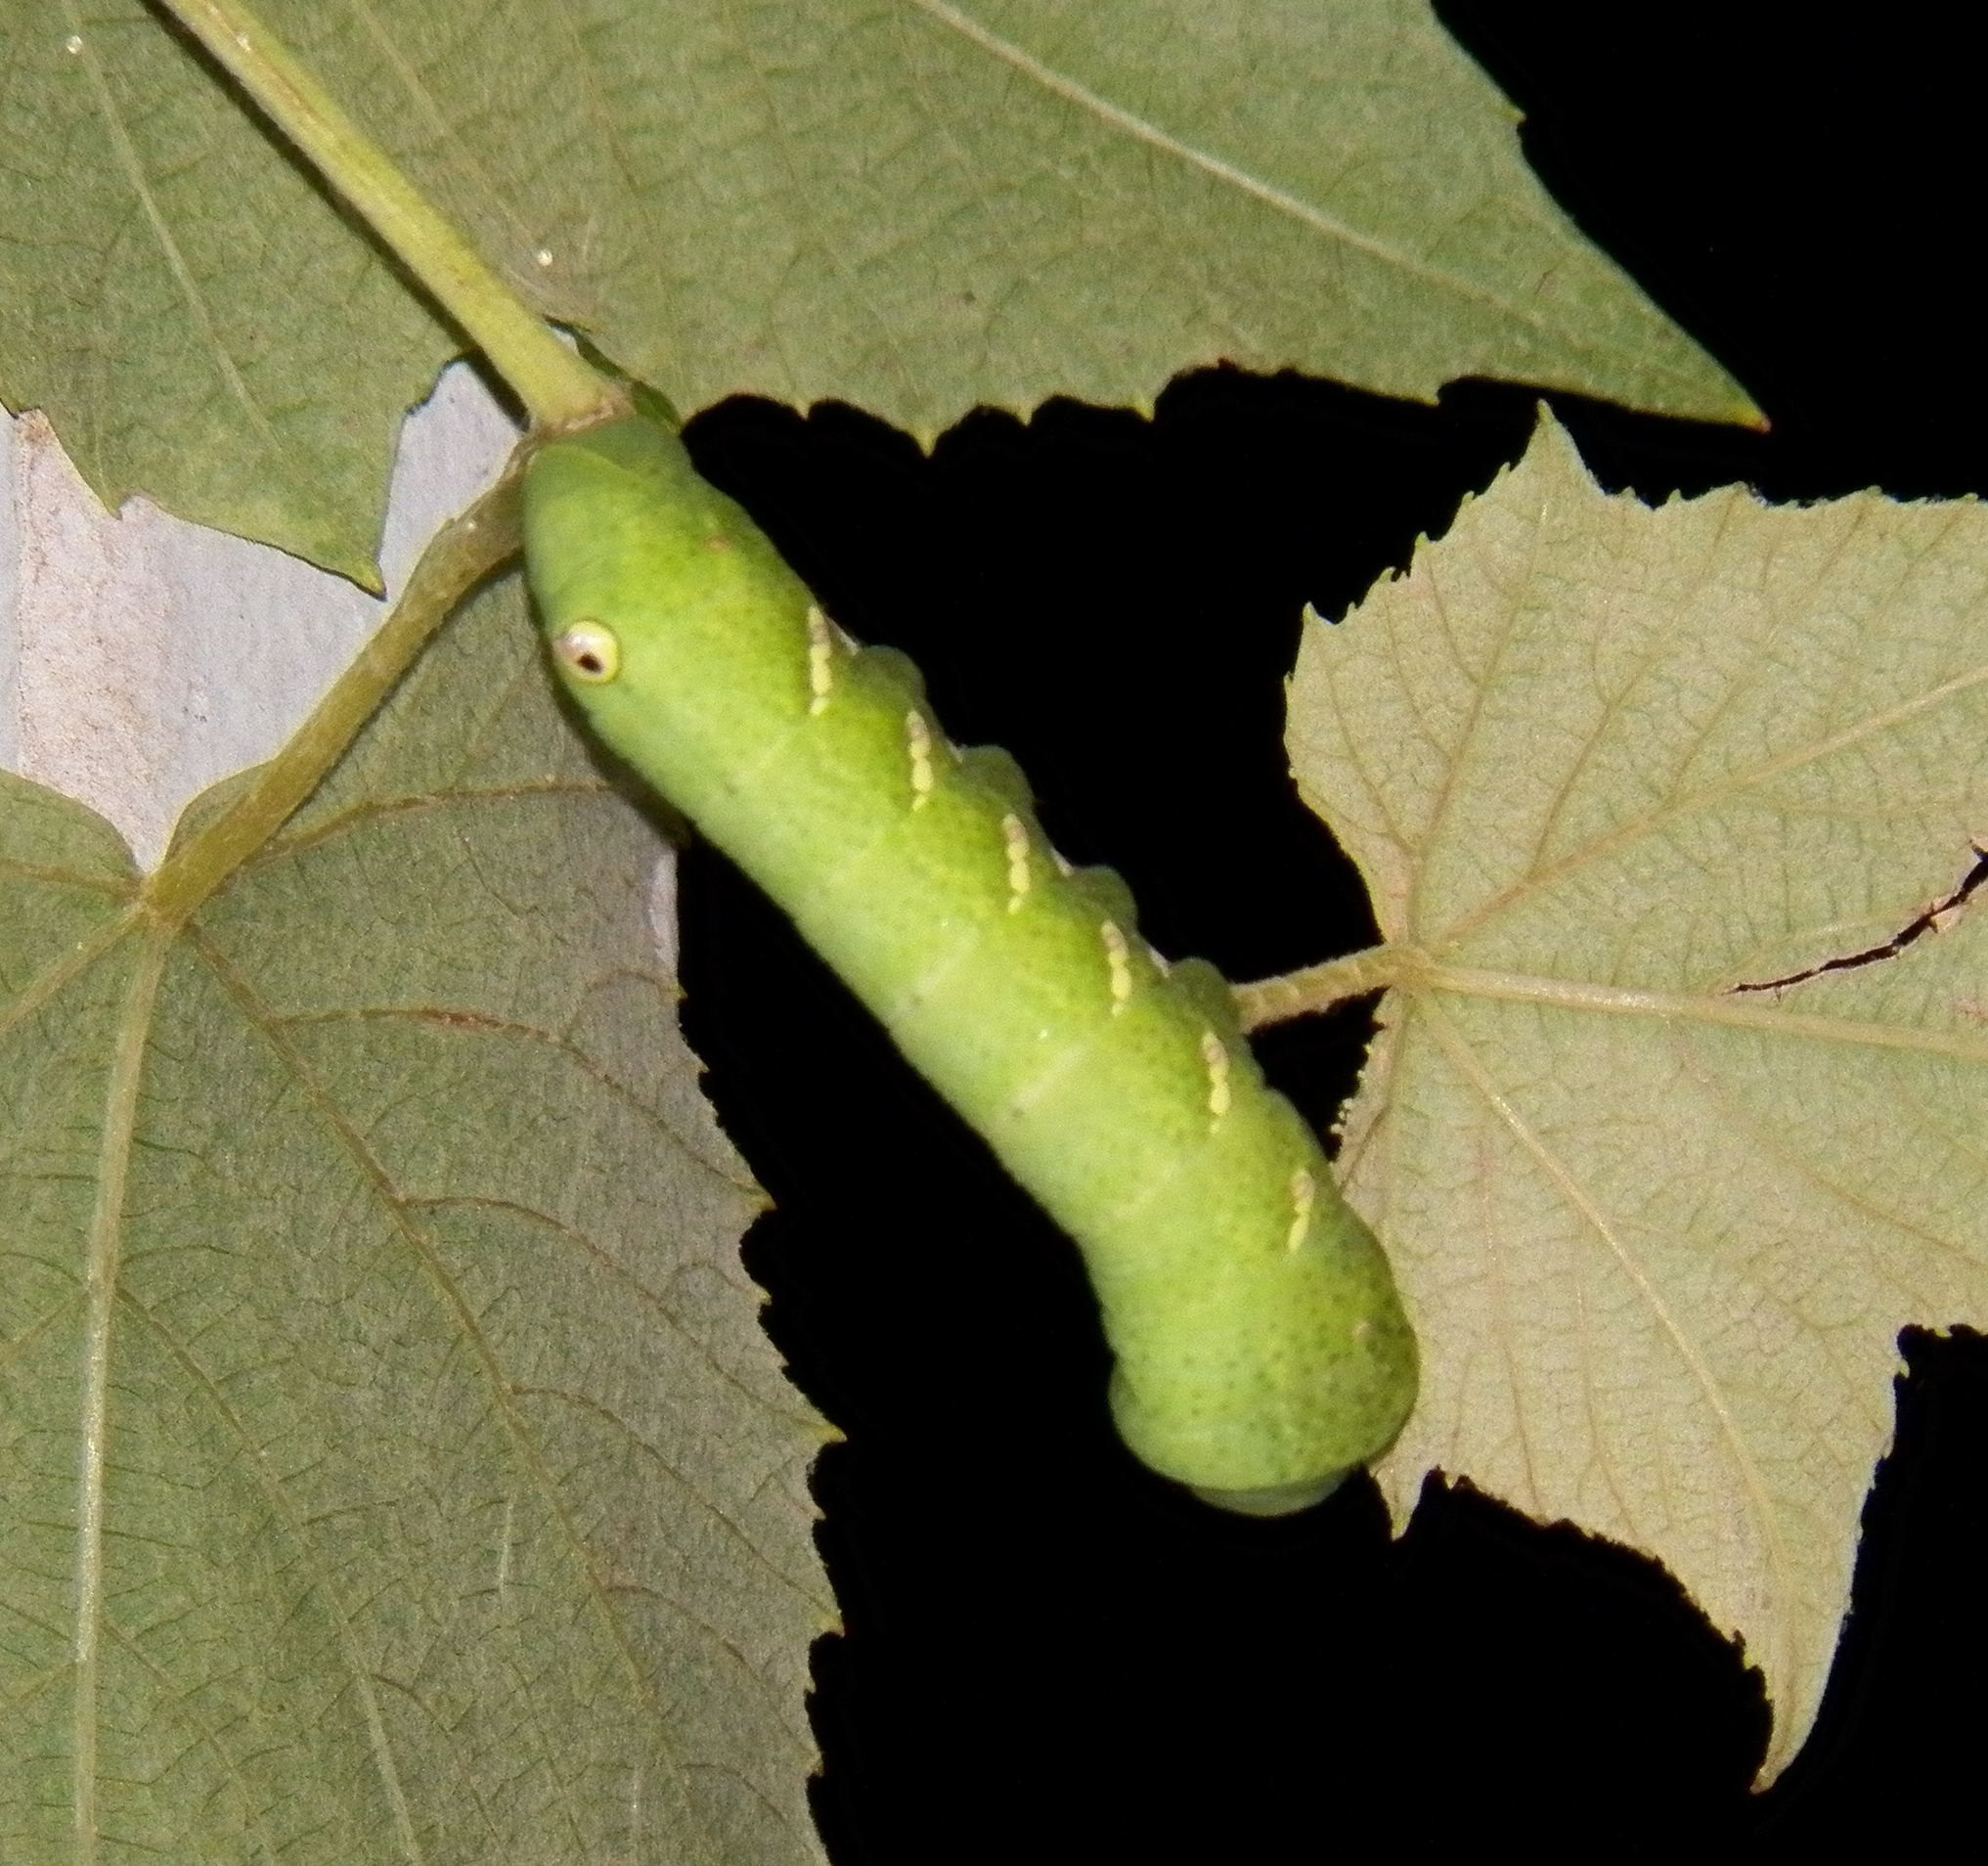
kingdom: Animalia
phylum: Arthropoda
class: Insecta
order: Lepidoptera
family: Sphingidae
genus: Eumorpha
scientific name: Eumorpha achemon
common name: Achemon sphinx
